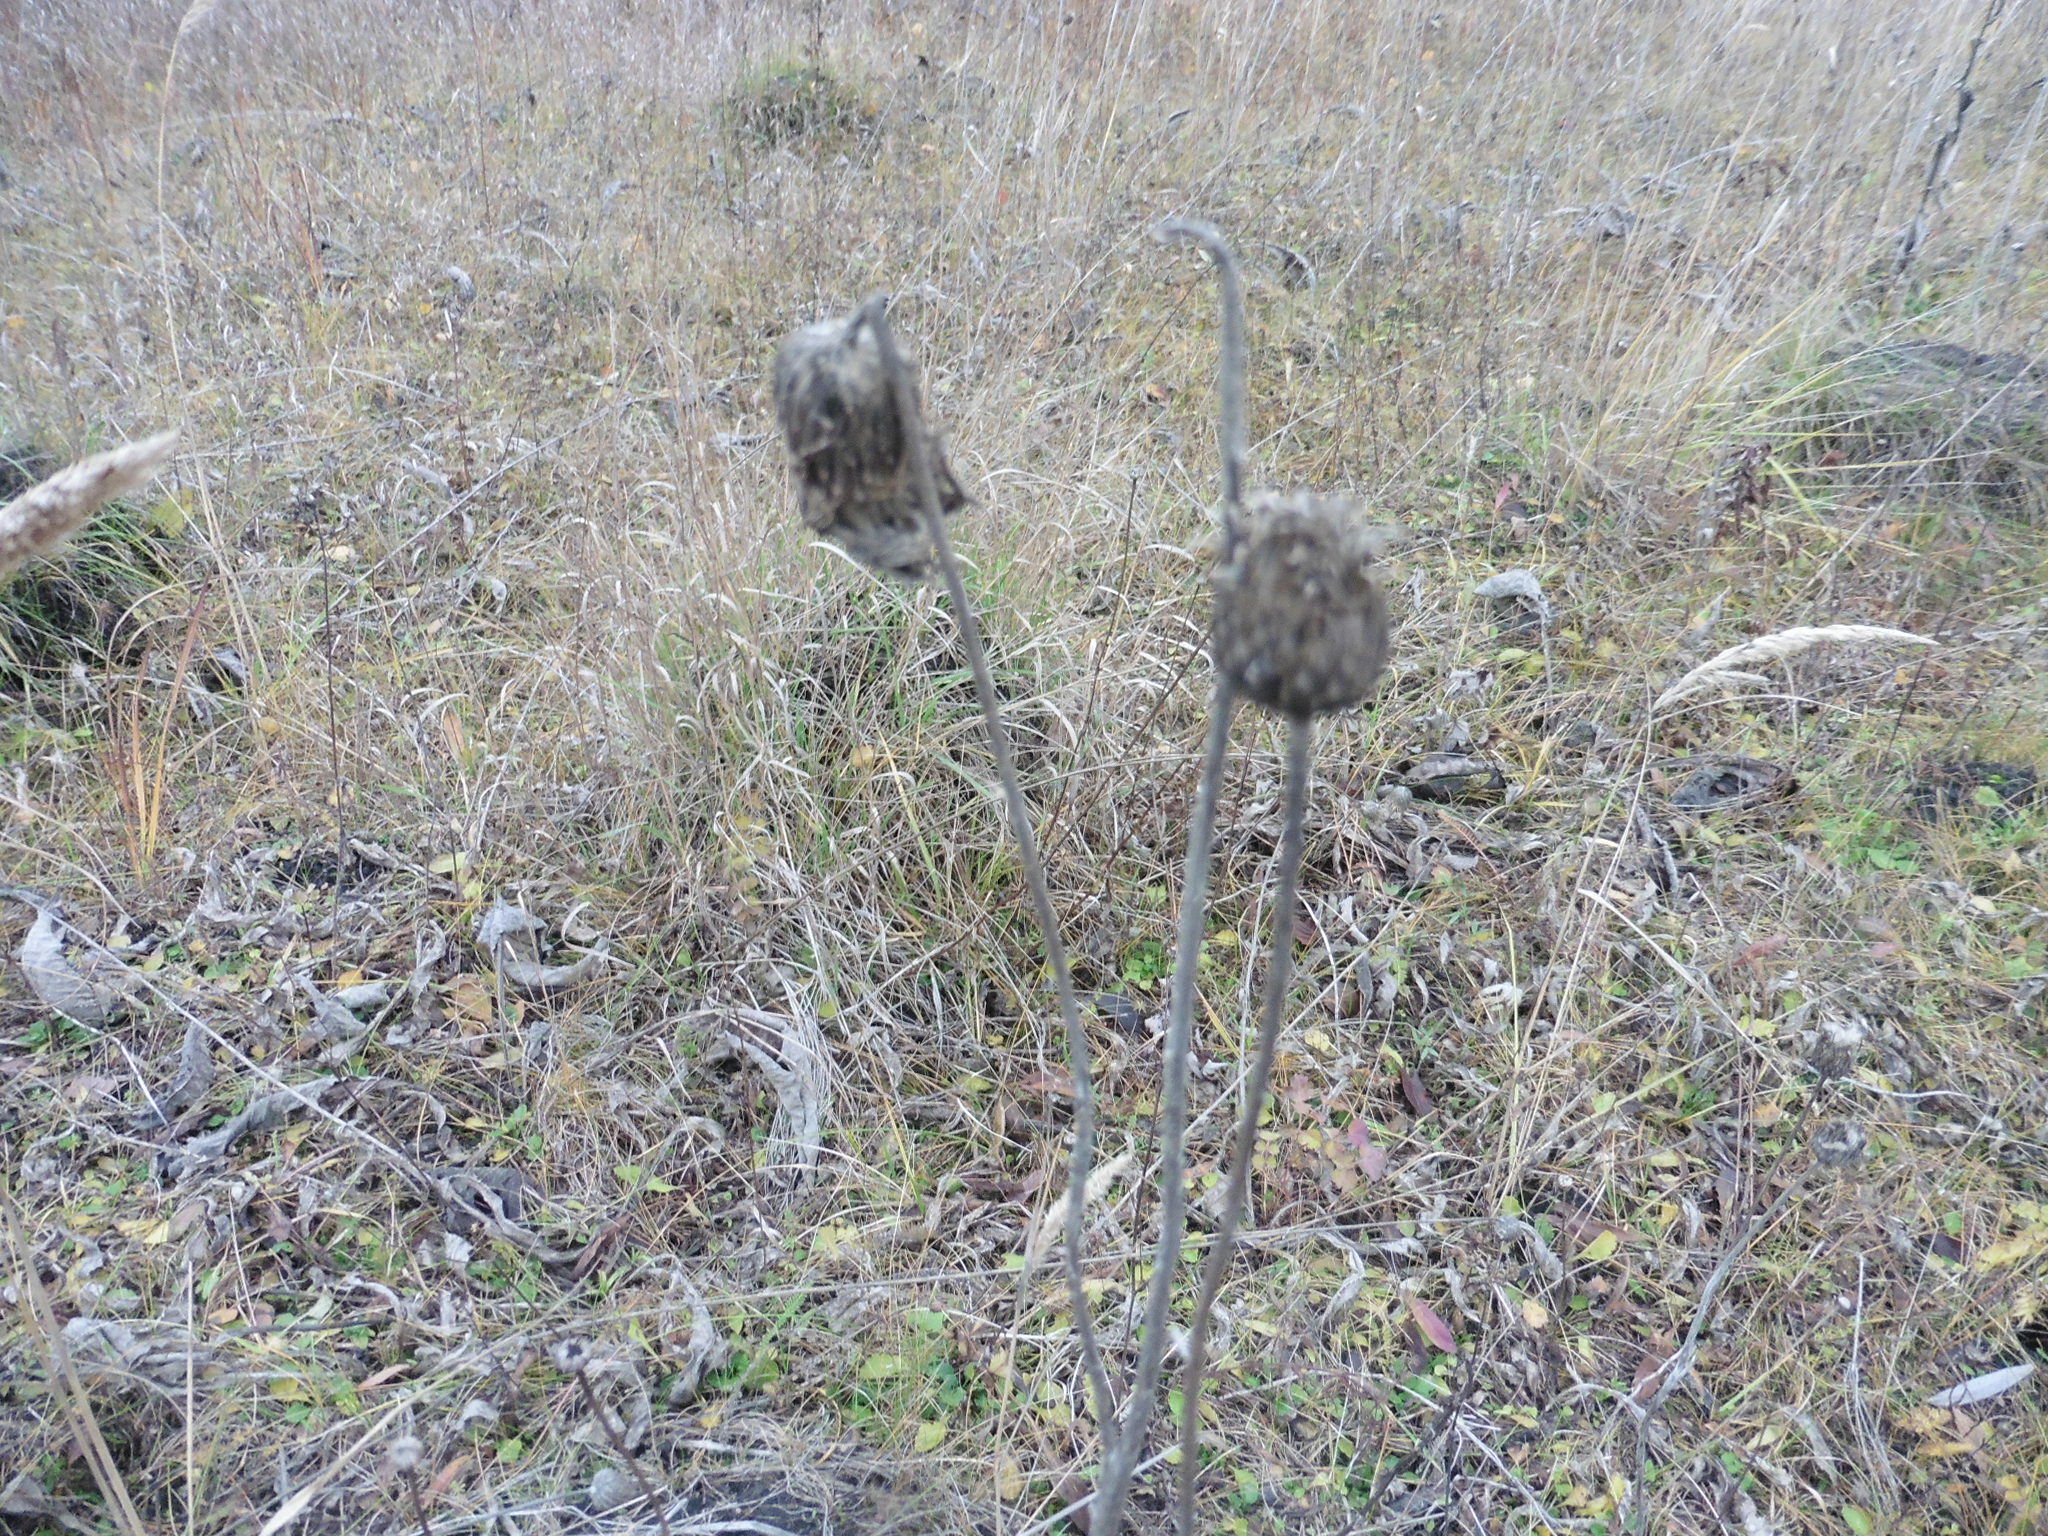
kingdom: Plantae
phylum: Tracheophyta
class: Magnoliopsida
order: Asterales
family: Asteraceae
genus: Cirsium
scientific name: Cirsium canum
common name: Queen anne's thistle
